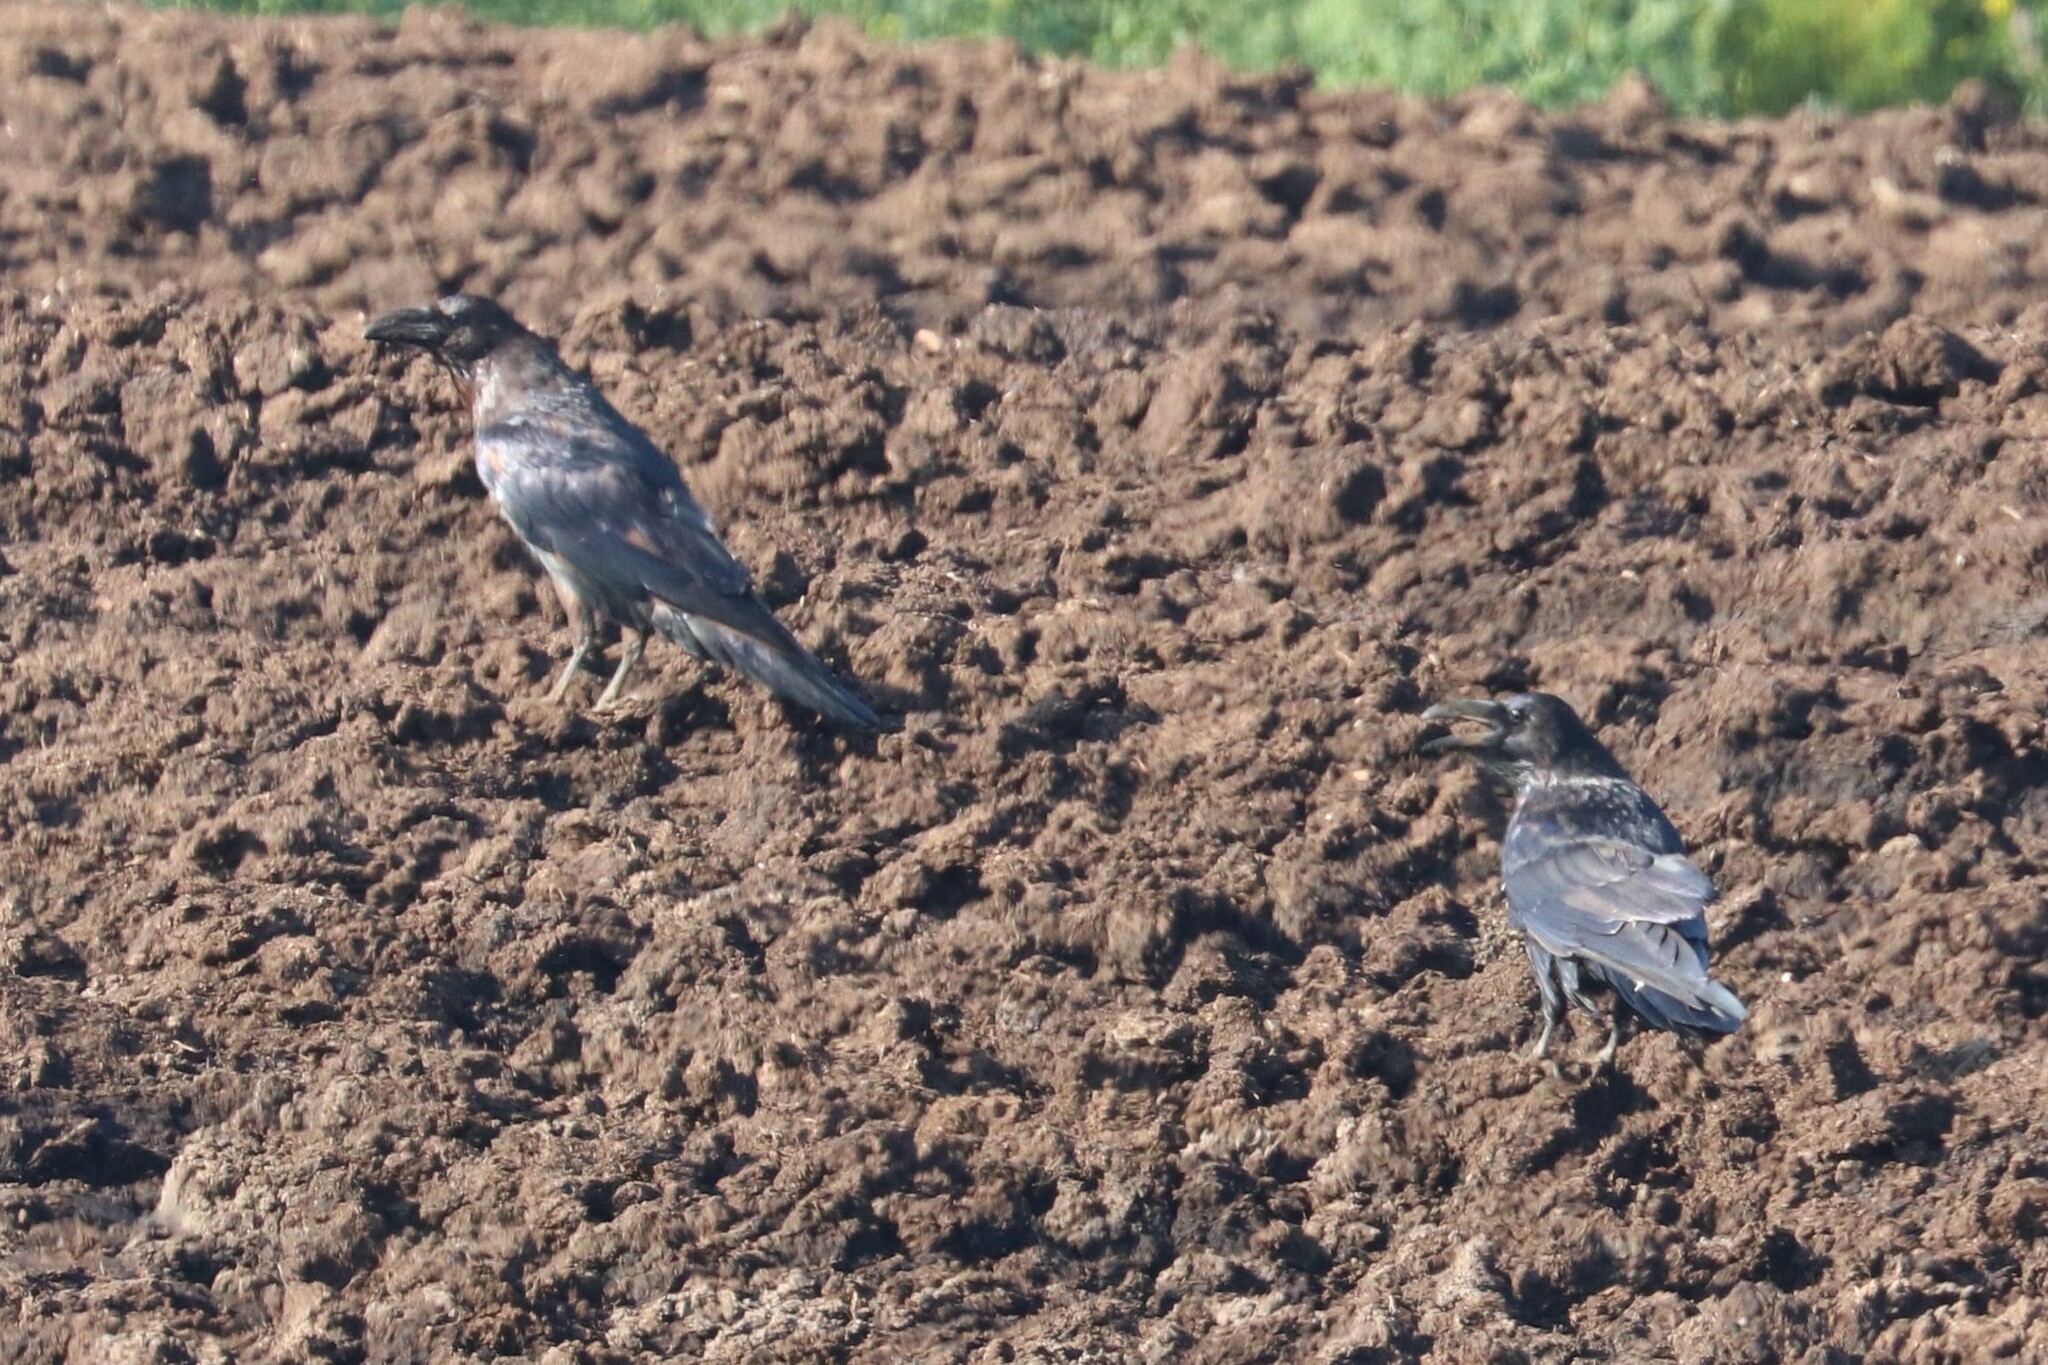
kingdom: Animalia
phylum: Chordata
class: Aves
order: Passeriformes
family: Corvidae
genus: Corvus
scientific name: Corvus corax
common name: Common raven
